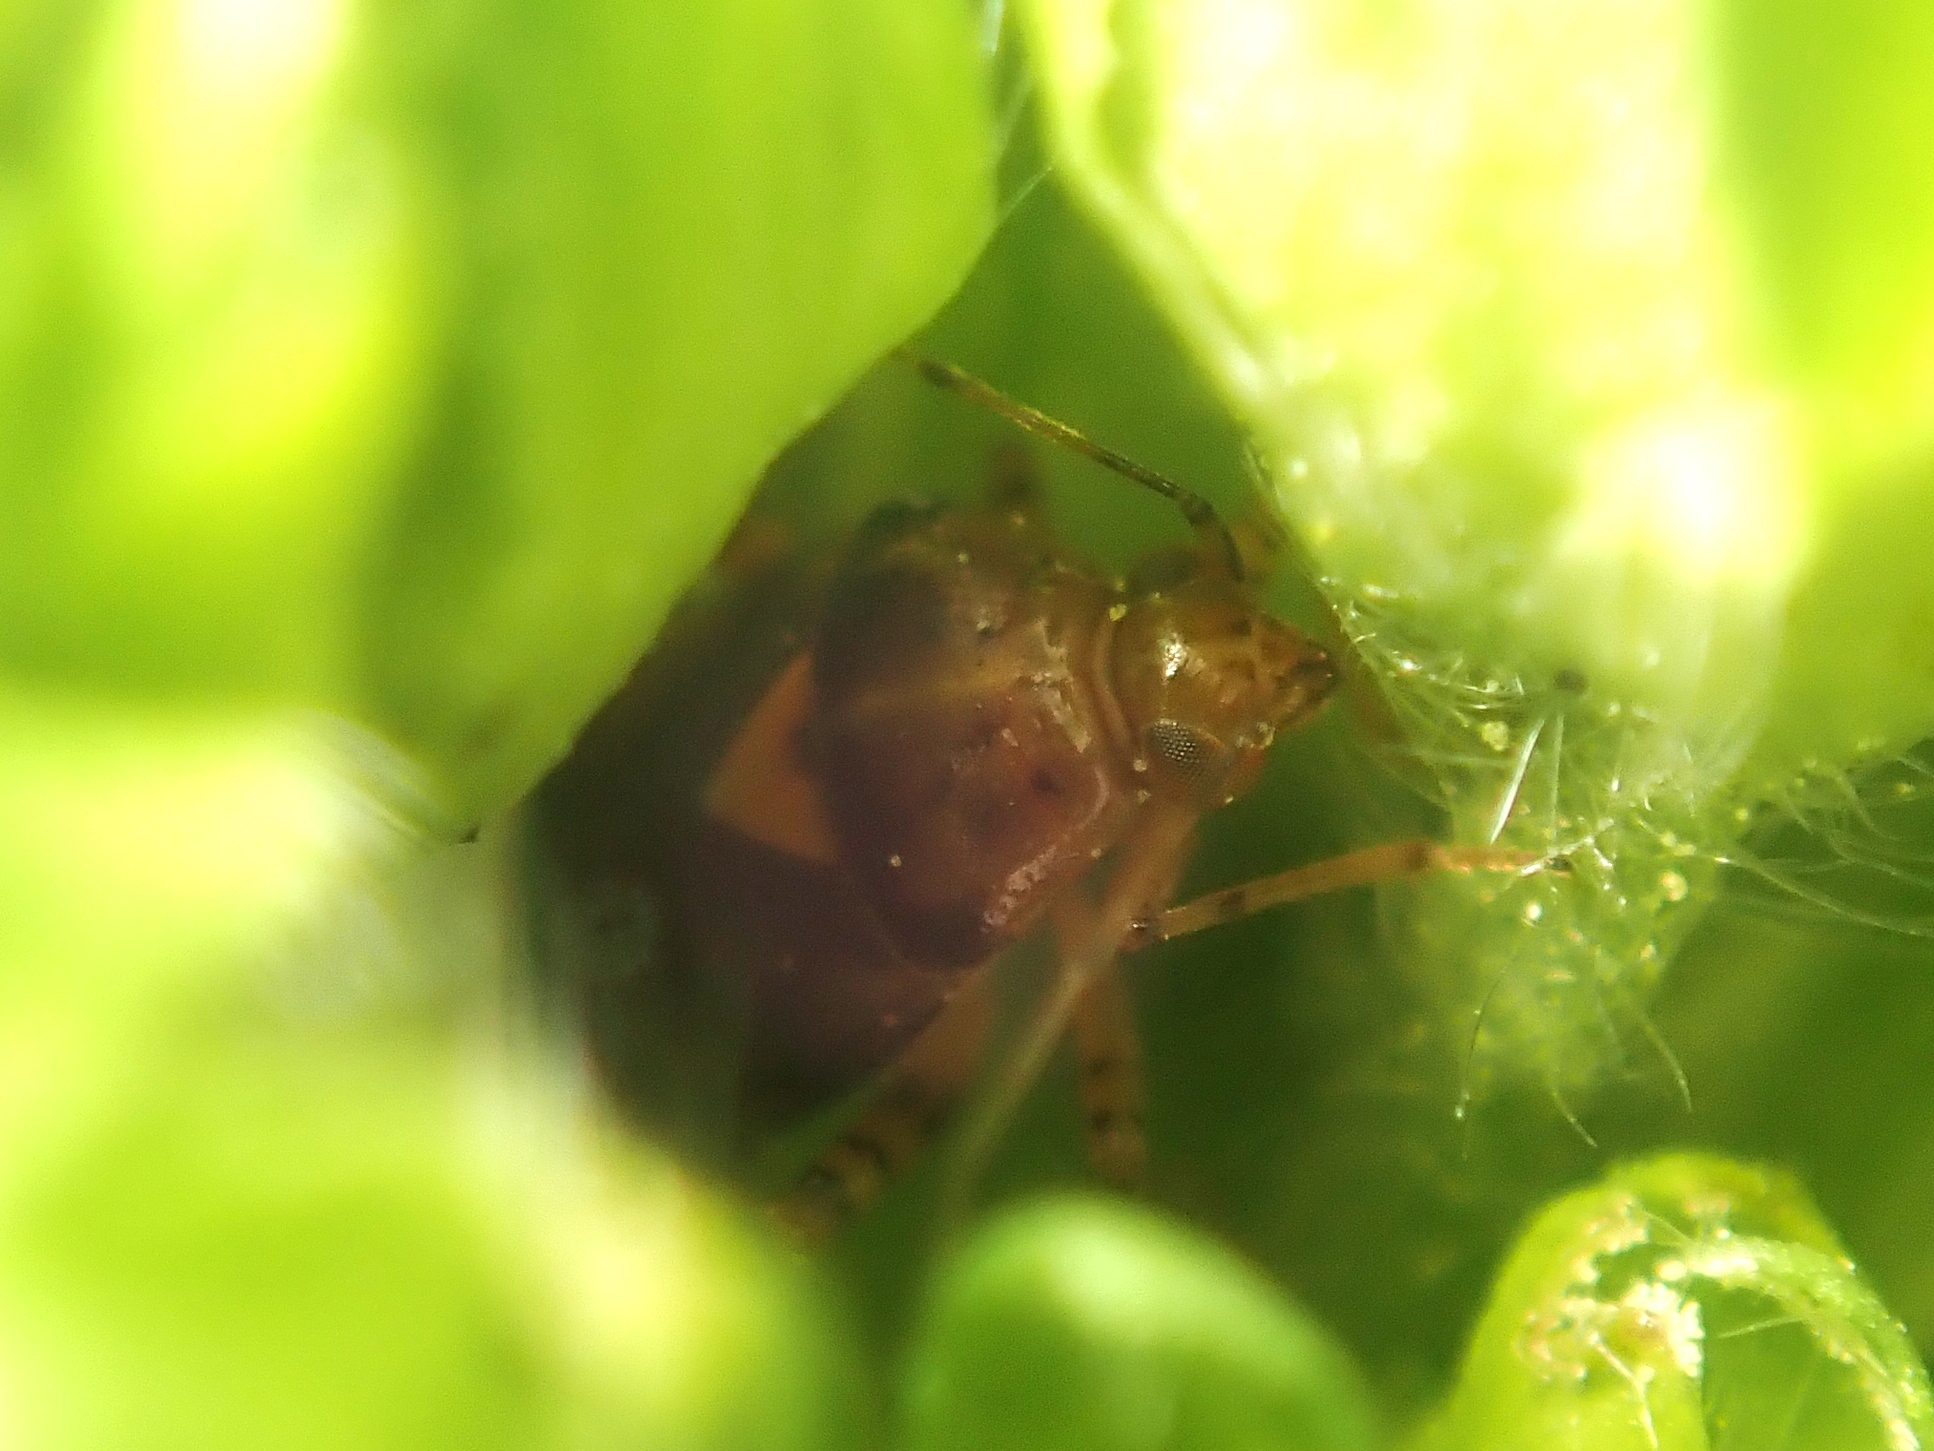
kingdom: Animalia
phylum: Arthropoda
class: Insecta
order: Hemiptera
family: Miridae
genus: Liocoris
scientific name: Liocoris tripustulatus
